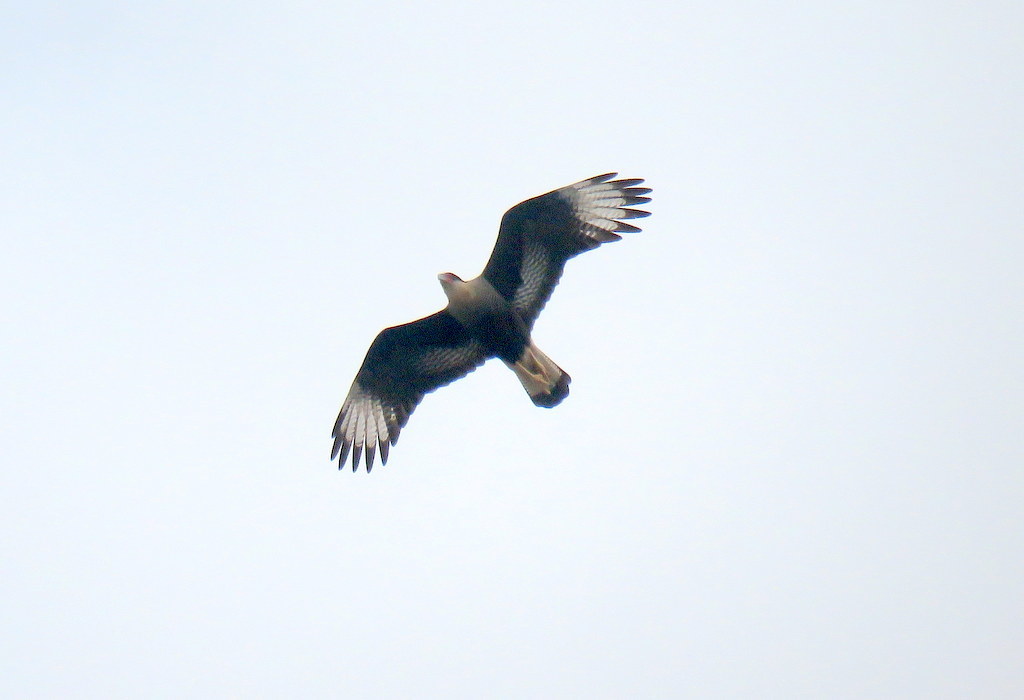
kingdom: Animalia
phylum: Chordata
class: Aves
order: Falconiformes
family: Falconidae
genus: Caracara
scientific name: Caracara plancus
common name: Southern caracara
